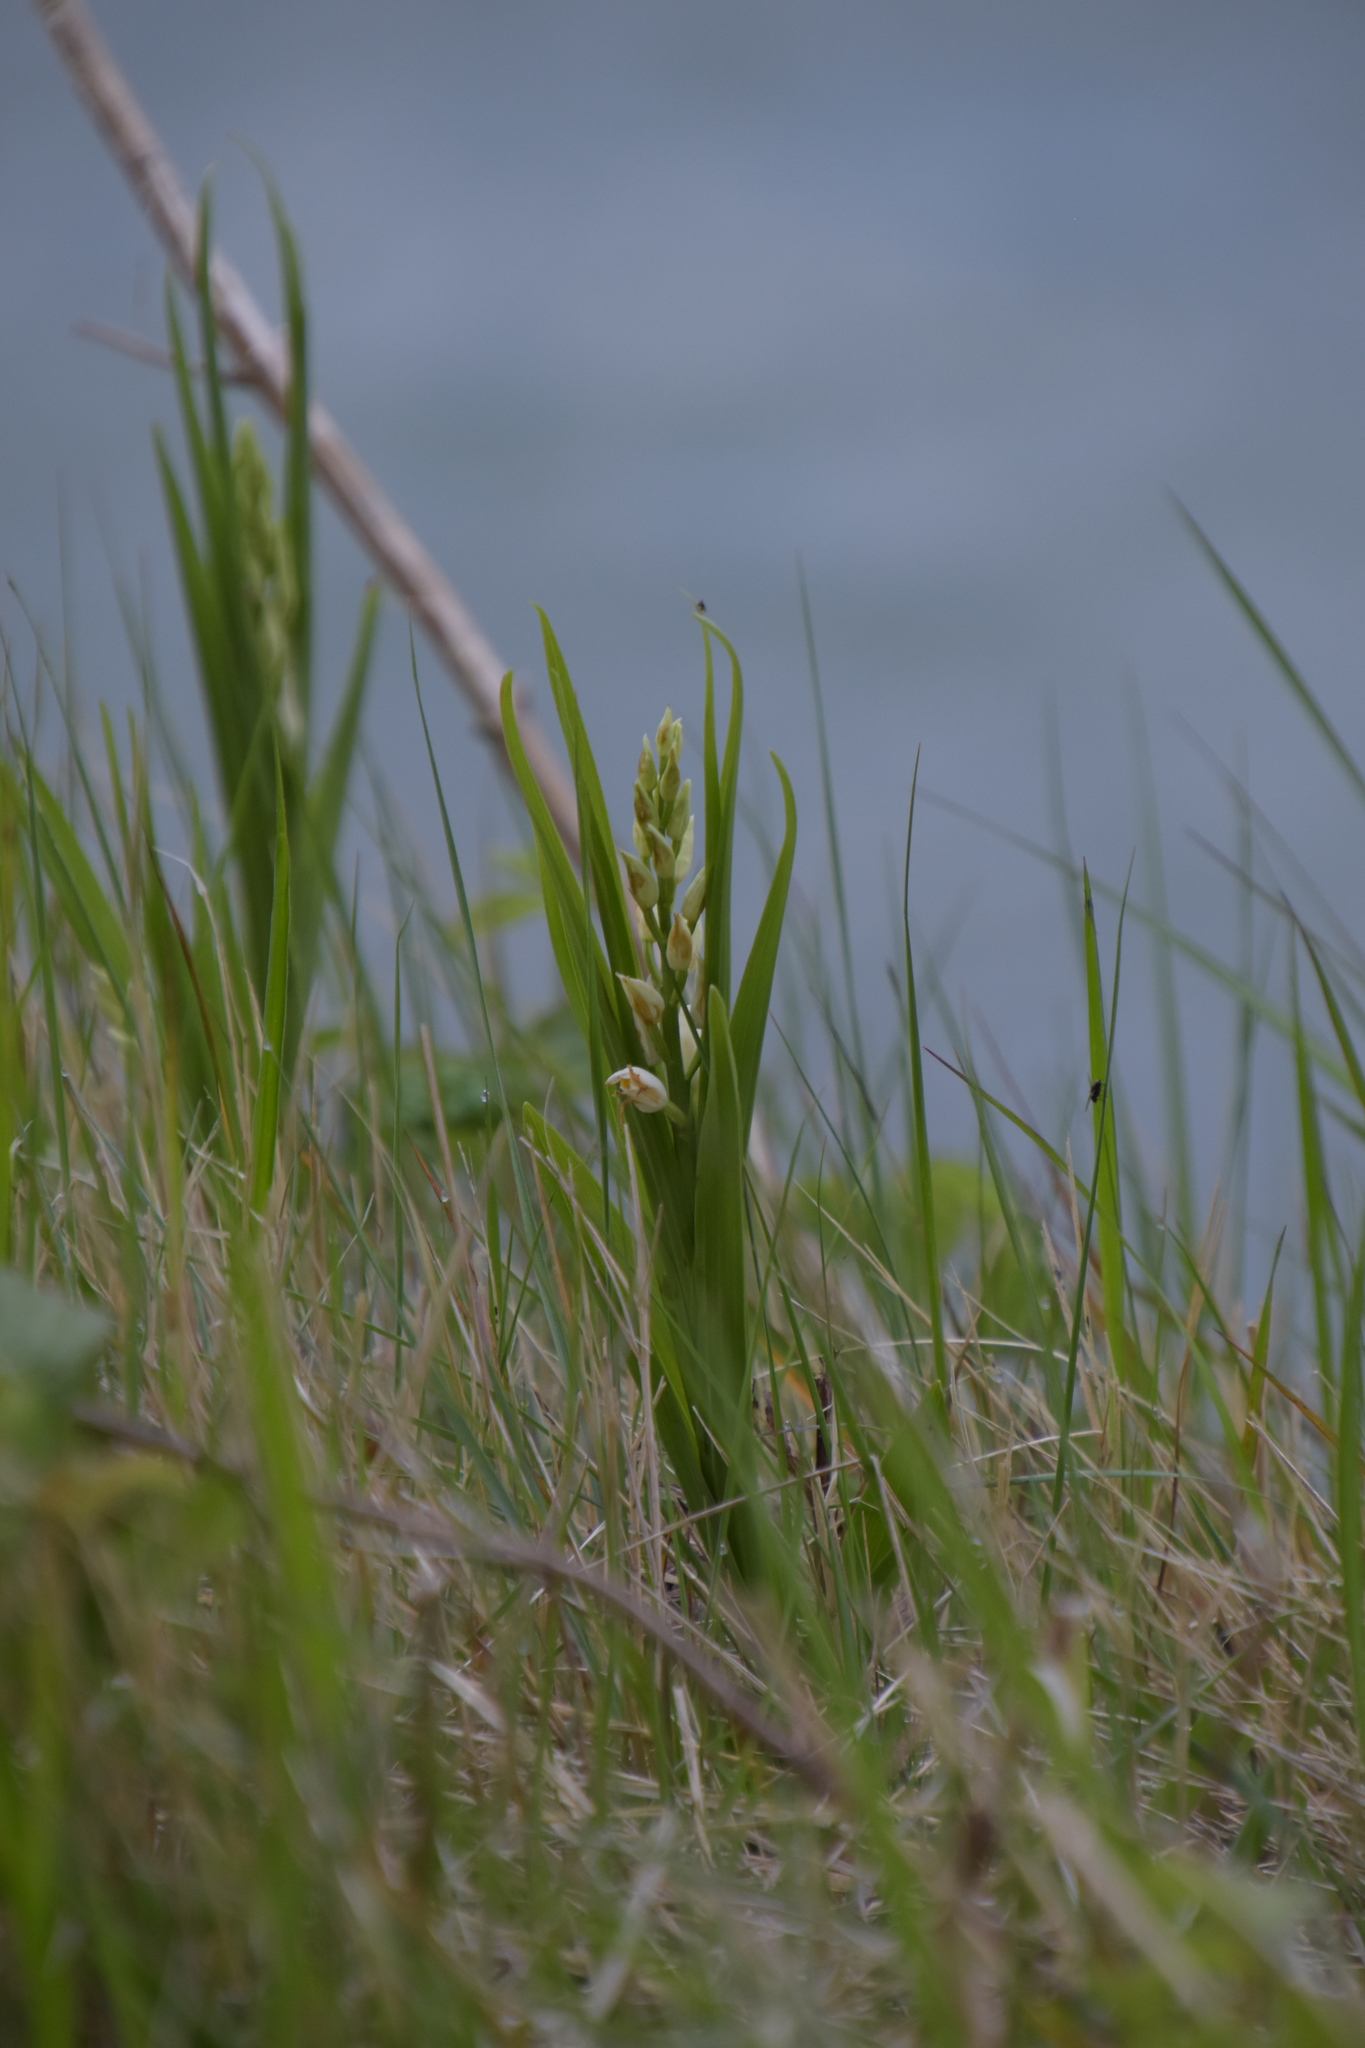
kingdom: Plantae
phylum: Tracheophyta
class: Liliopsida
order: Asparagales
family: Orchidaceae
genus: Cephalanthera
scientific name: Cephalanthera longifolia
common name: Narrow-leaved helleborine
